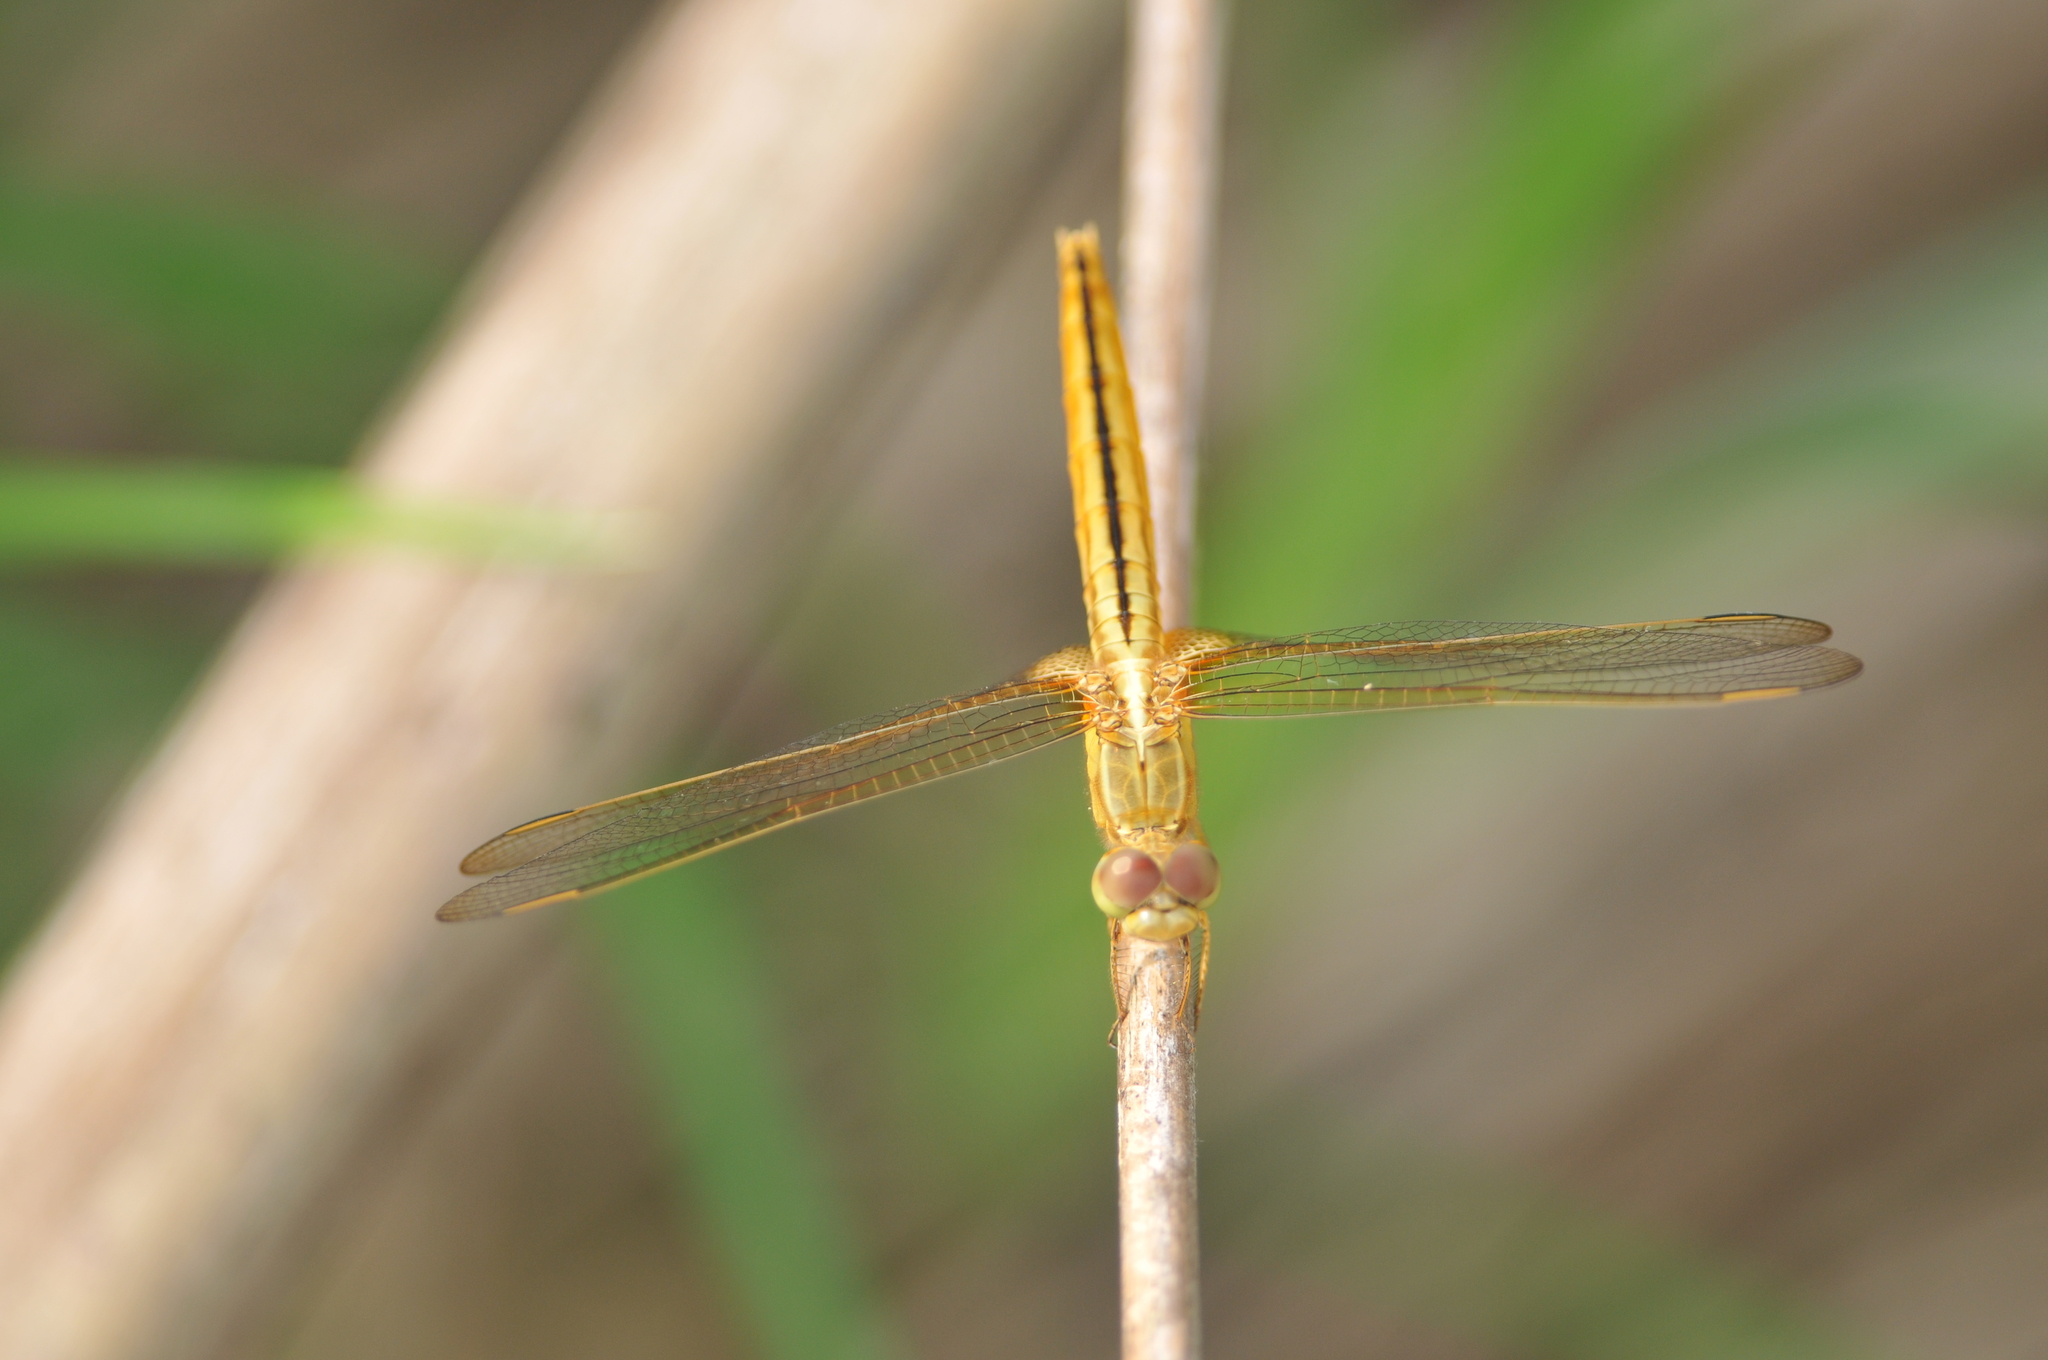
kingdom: Animalia
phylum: Arthropoda
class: Insecta
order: Odonata
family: Libellulidae
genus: Crocothemis
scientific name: Crocothemis servilia
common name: Scarlet skimmer
